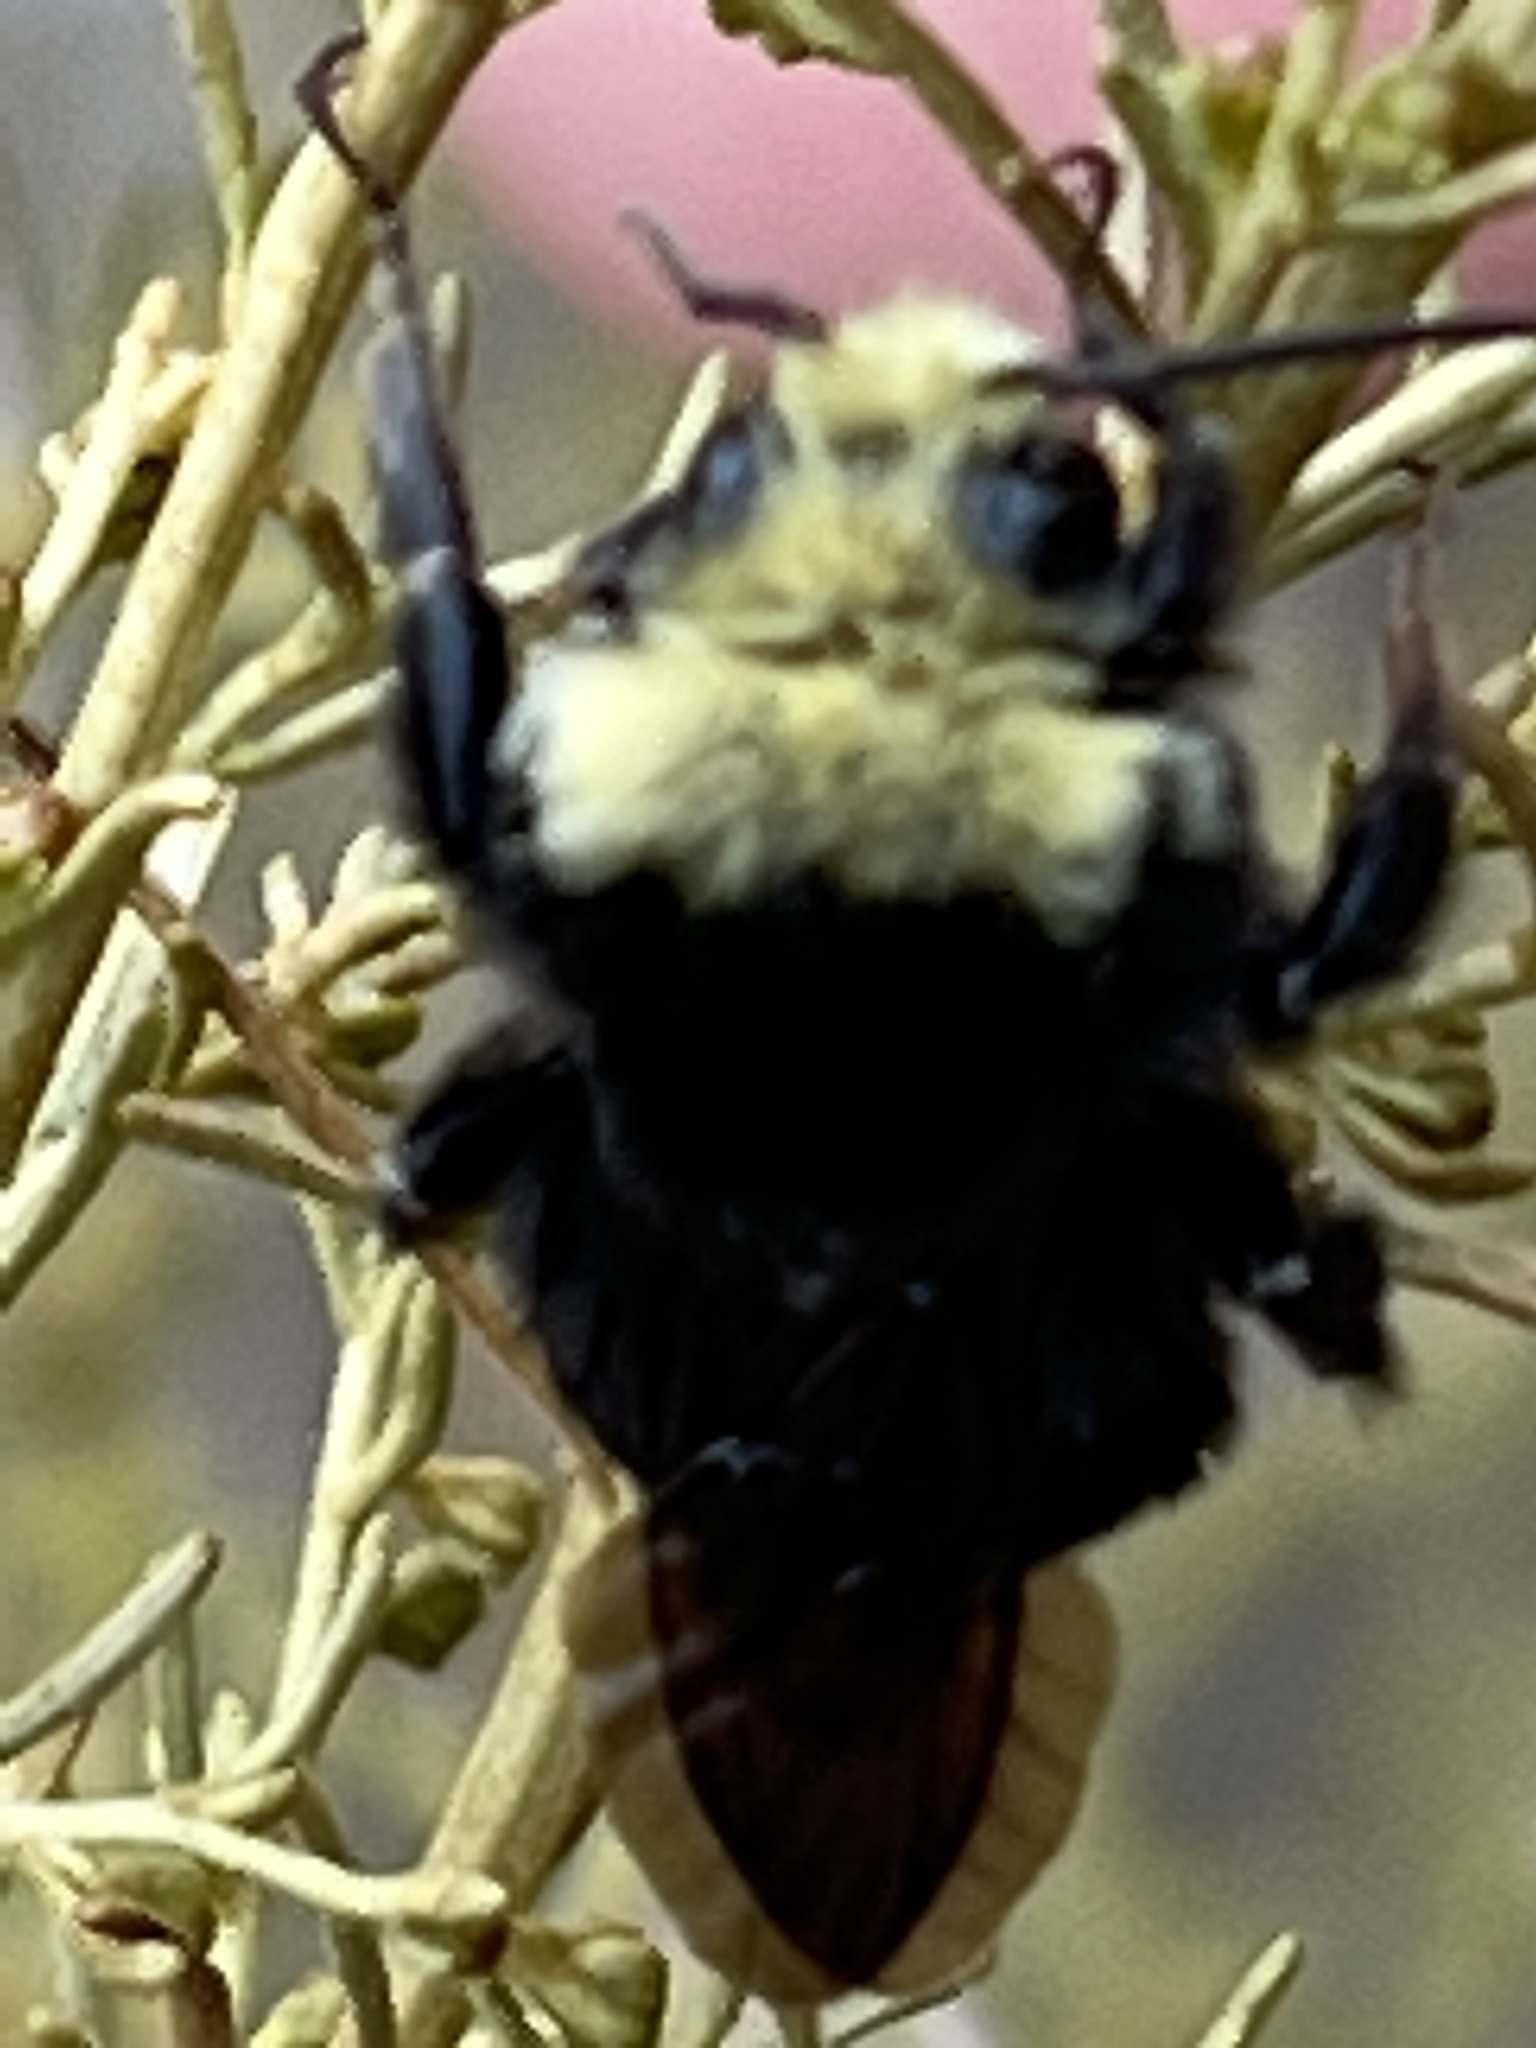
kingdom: Animalia
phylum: Arthropoda
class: Insecta
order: Hymenoptera
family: Apidae
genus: Bombus
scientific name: Bombus vosnesenskii
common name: Vosnesensky bumble bee
